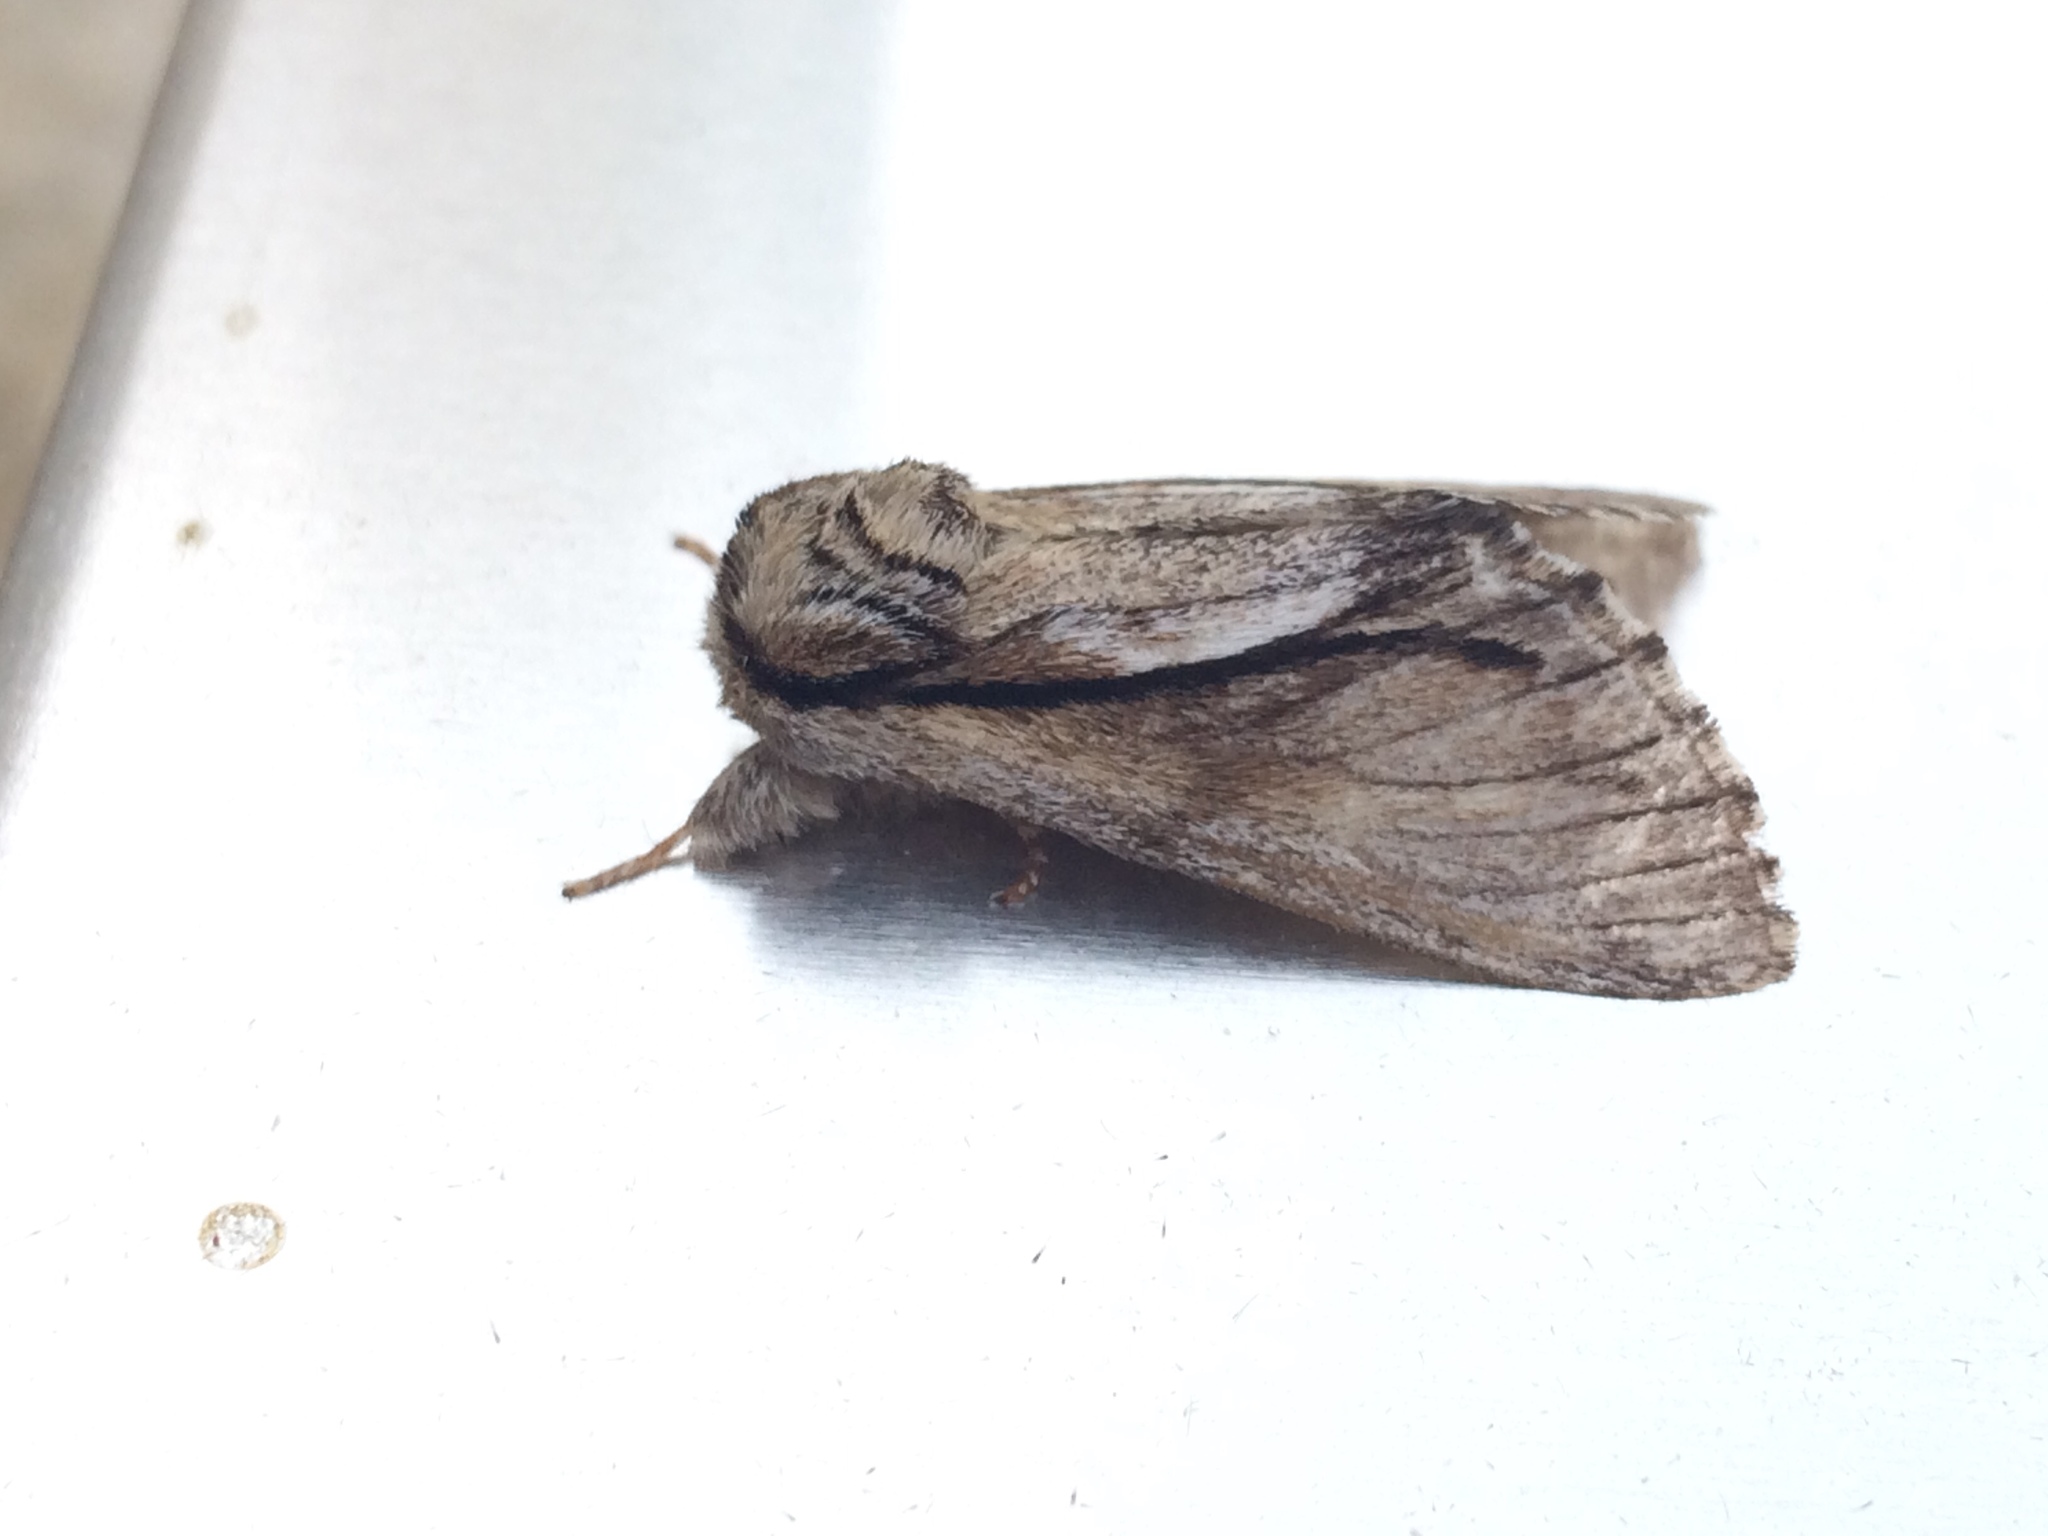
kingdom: Animalia
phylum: Arthropoda
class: Insecta
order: Lepidoptera
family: Notodontidae
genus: Paradrymonia
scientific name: Paradrymonia vittata
